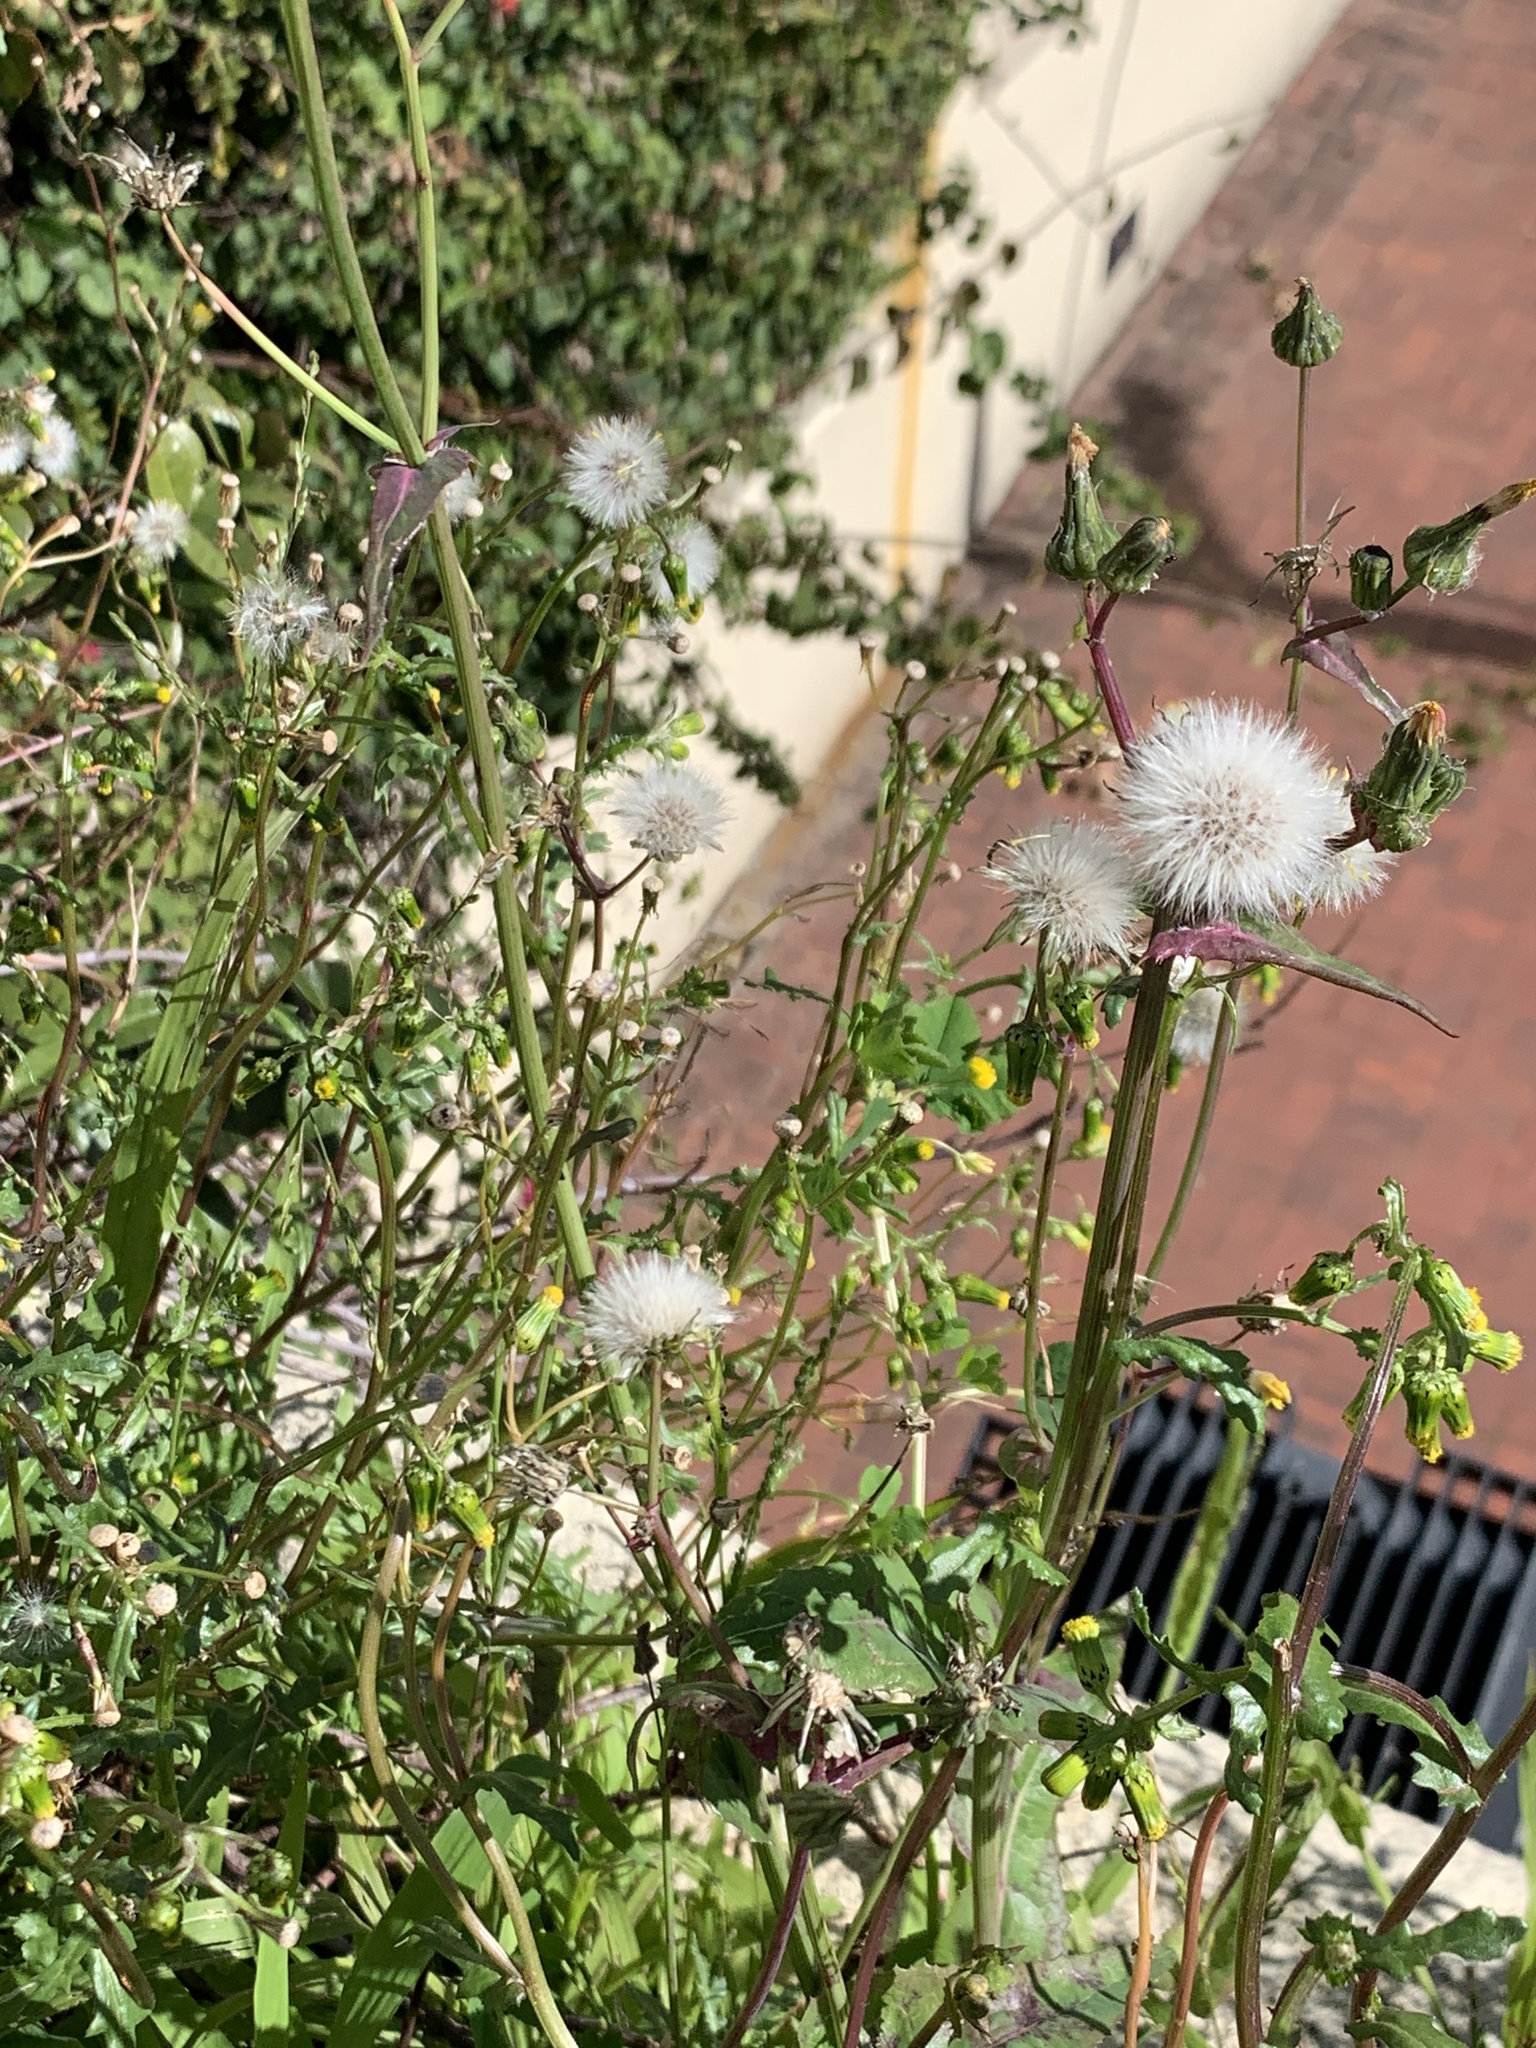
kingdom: Plantae
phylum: Tracheophyta
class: Magnoliopsida
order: Asterales
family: Asteraceae
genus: Sonchus
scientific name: Sonchus oleraceus
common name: Common sowthistle
